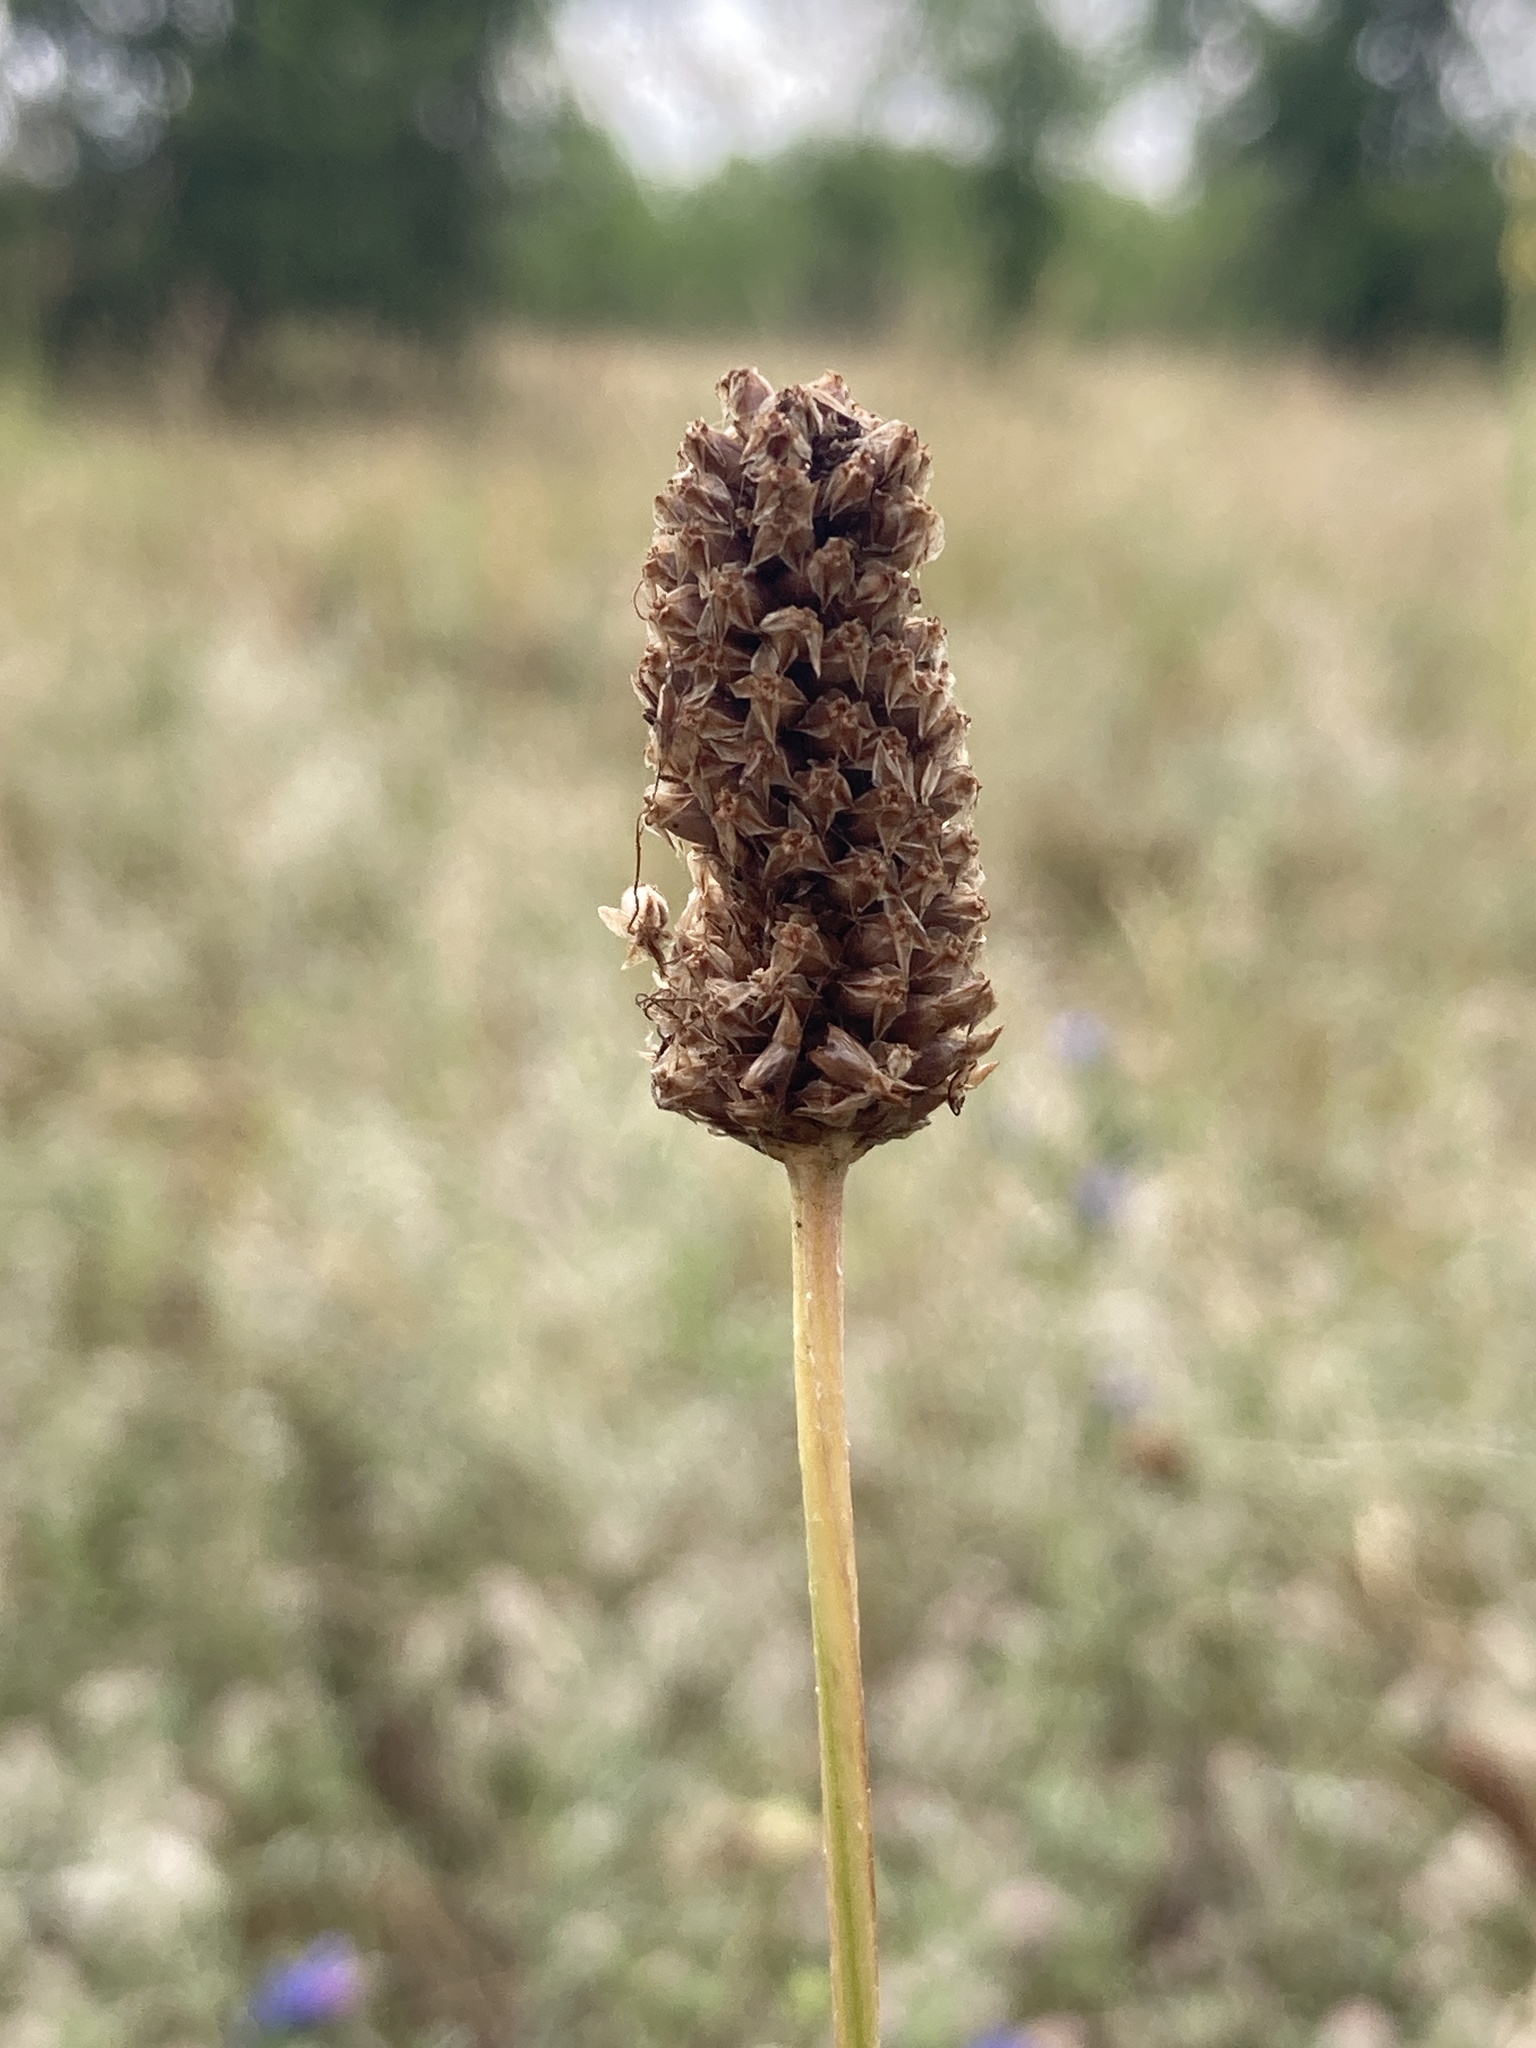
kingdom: Plantae
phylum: Tracheophyta
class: Magnoliopsida
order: Lamiales
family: Plantaginaceae
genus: Plantago
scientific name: Plantago urvillei
